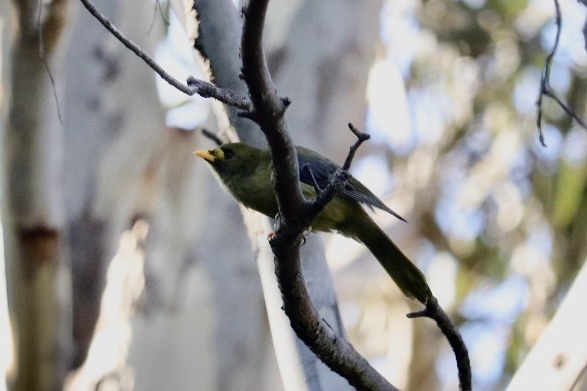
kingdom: Animalia
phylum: Chordata
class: Aves
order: Passeriformes
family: Meliphagidae
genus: Manorina
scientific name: Manorina melanophrys
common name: Bell miner
